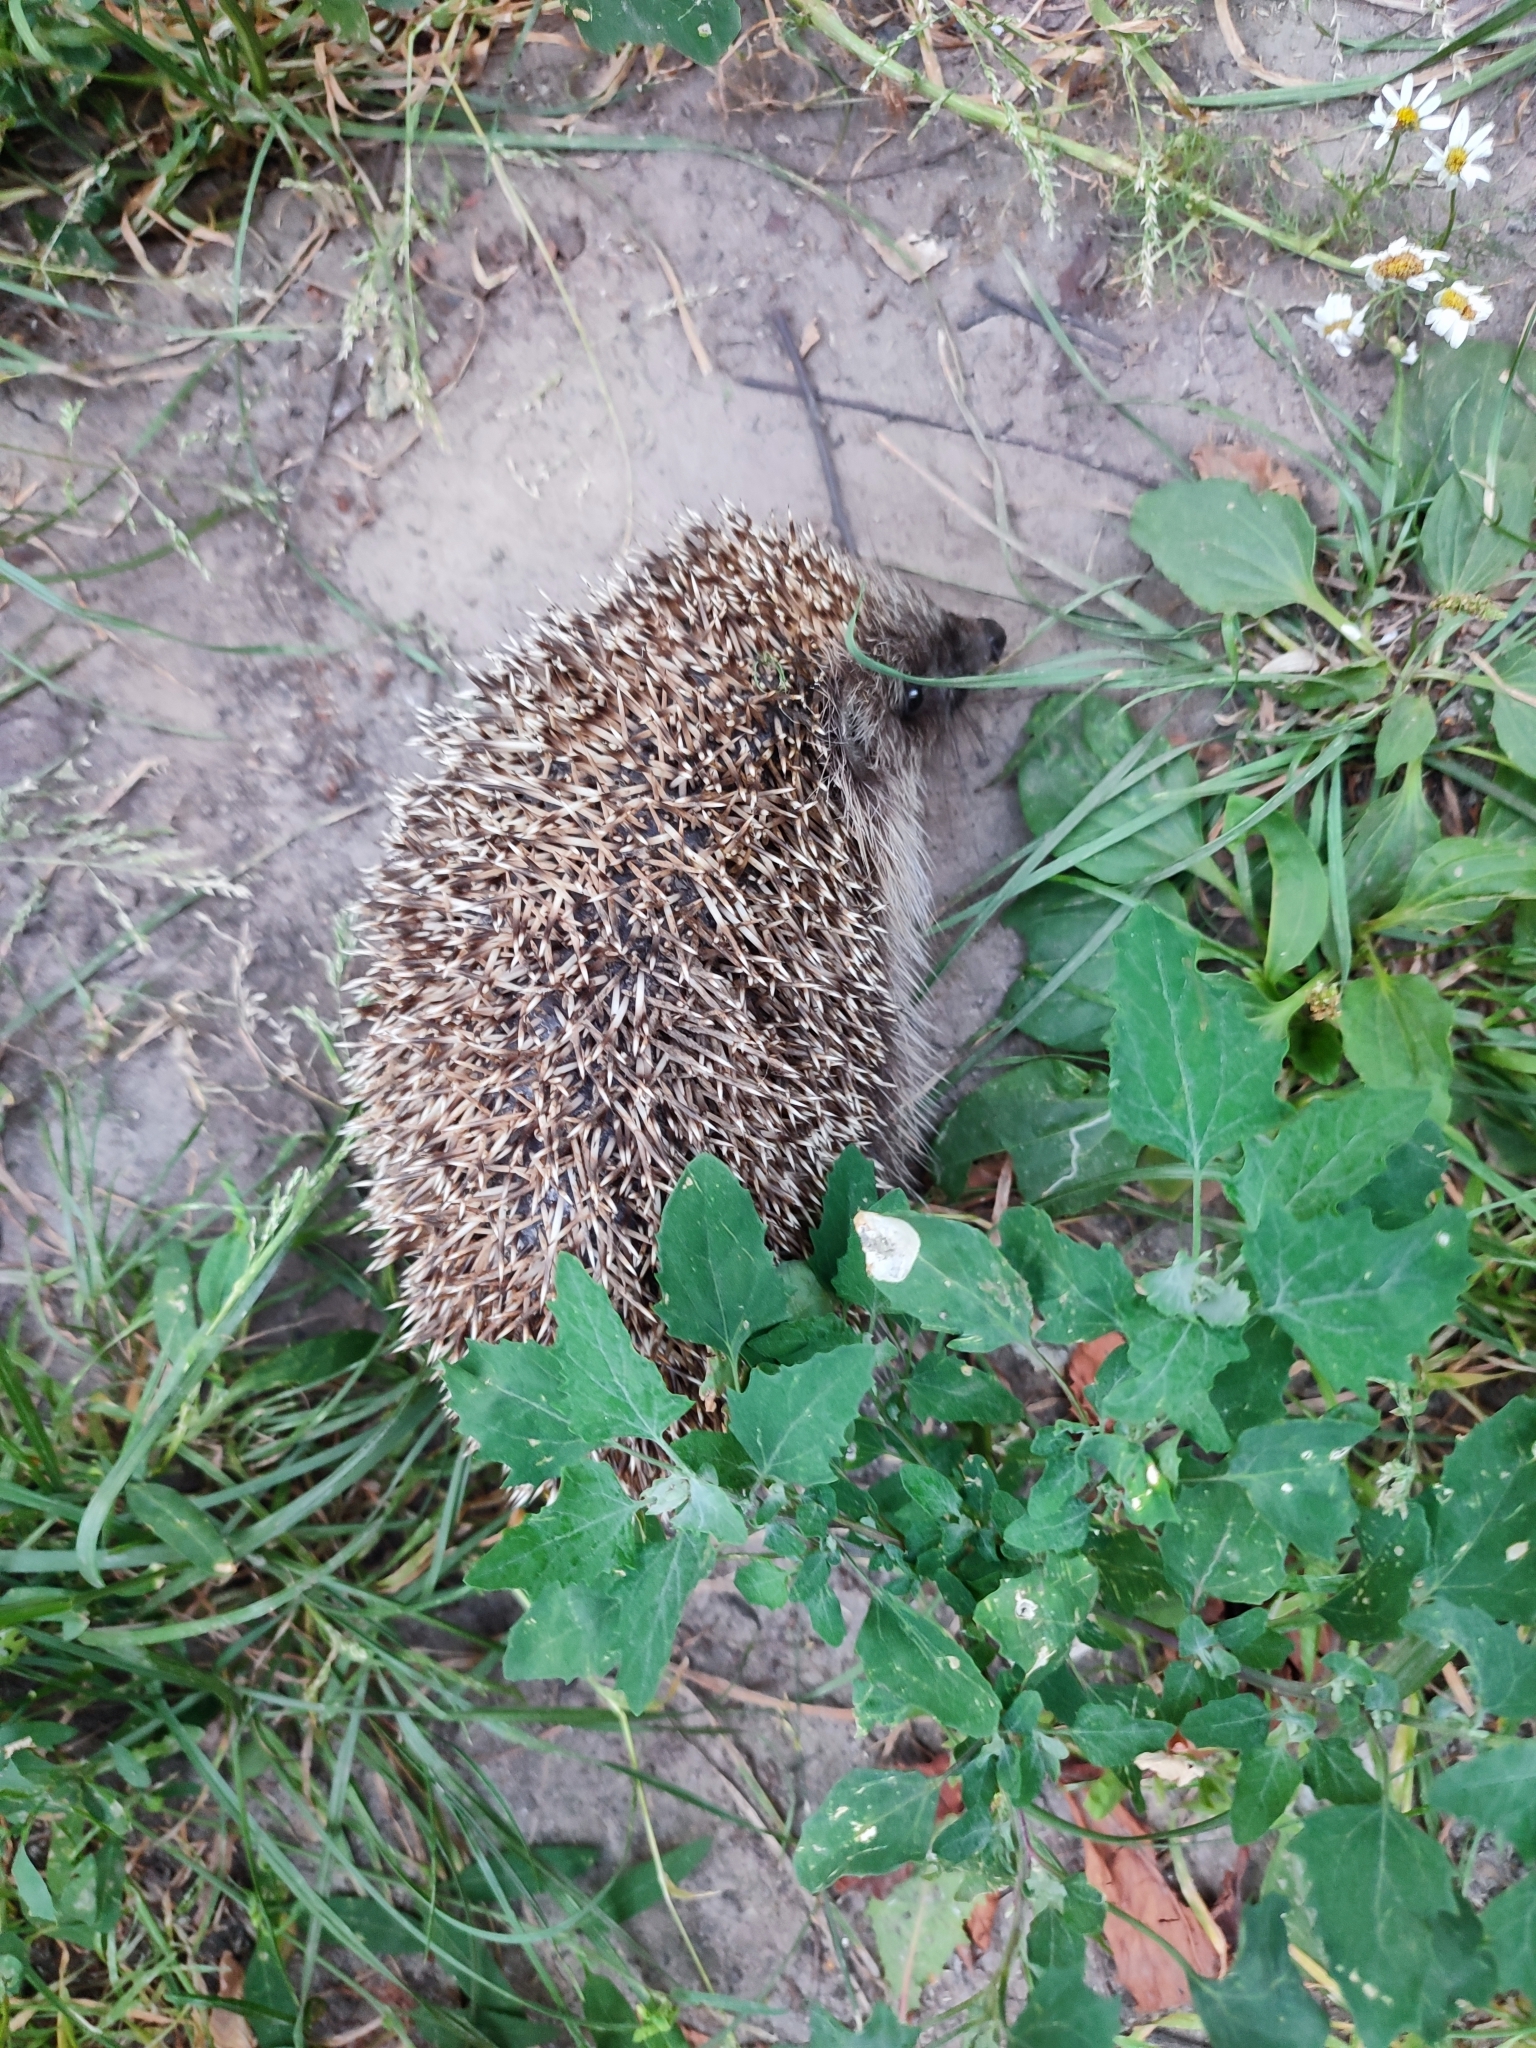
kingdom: Animalia
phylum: Chordata
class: Mammalia
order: Erinaceomorpha
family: Erinaceidae
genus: Erinaceus
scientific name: Erinaceus roumanicus
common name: Northern white-breasted hedgehog
